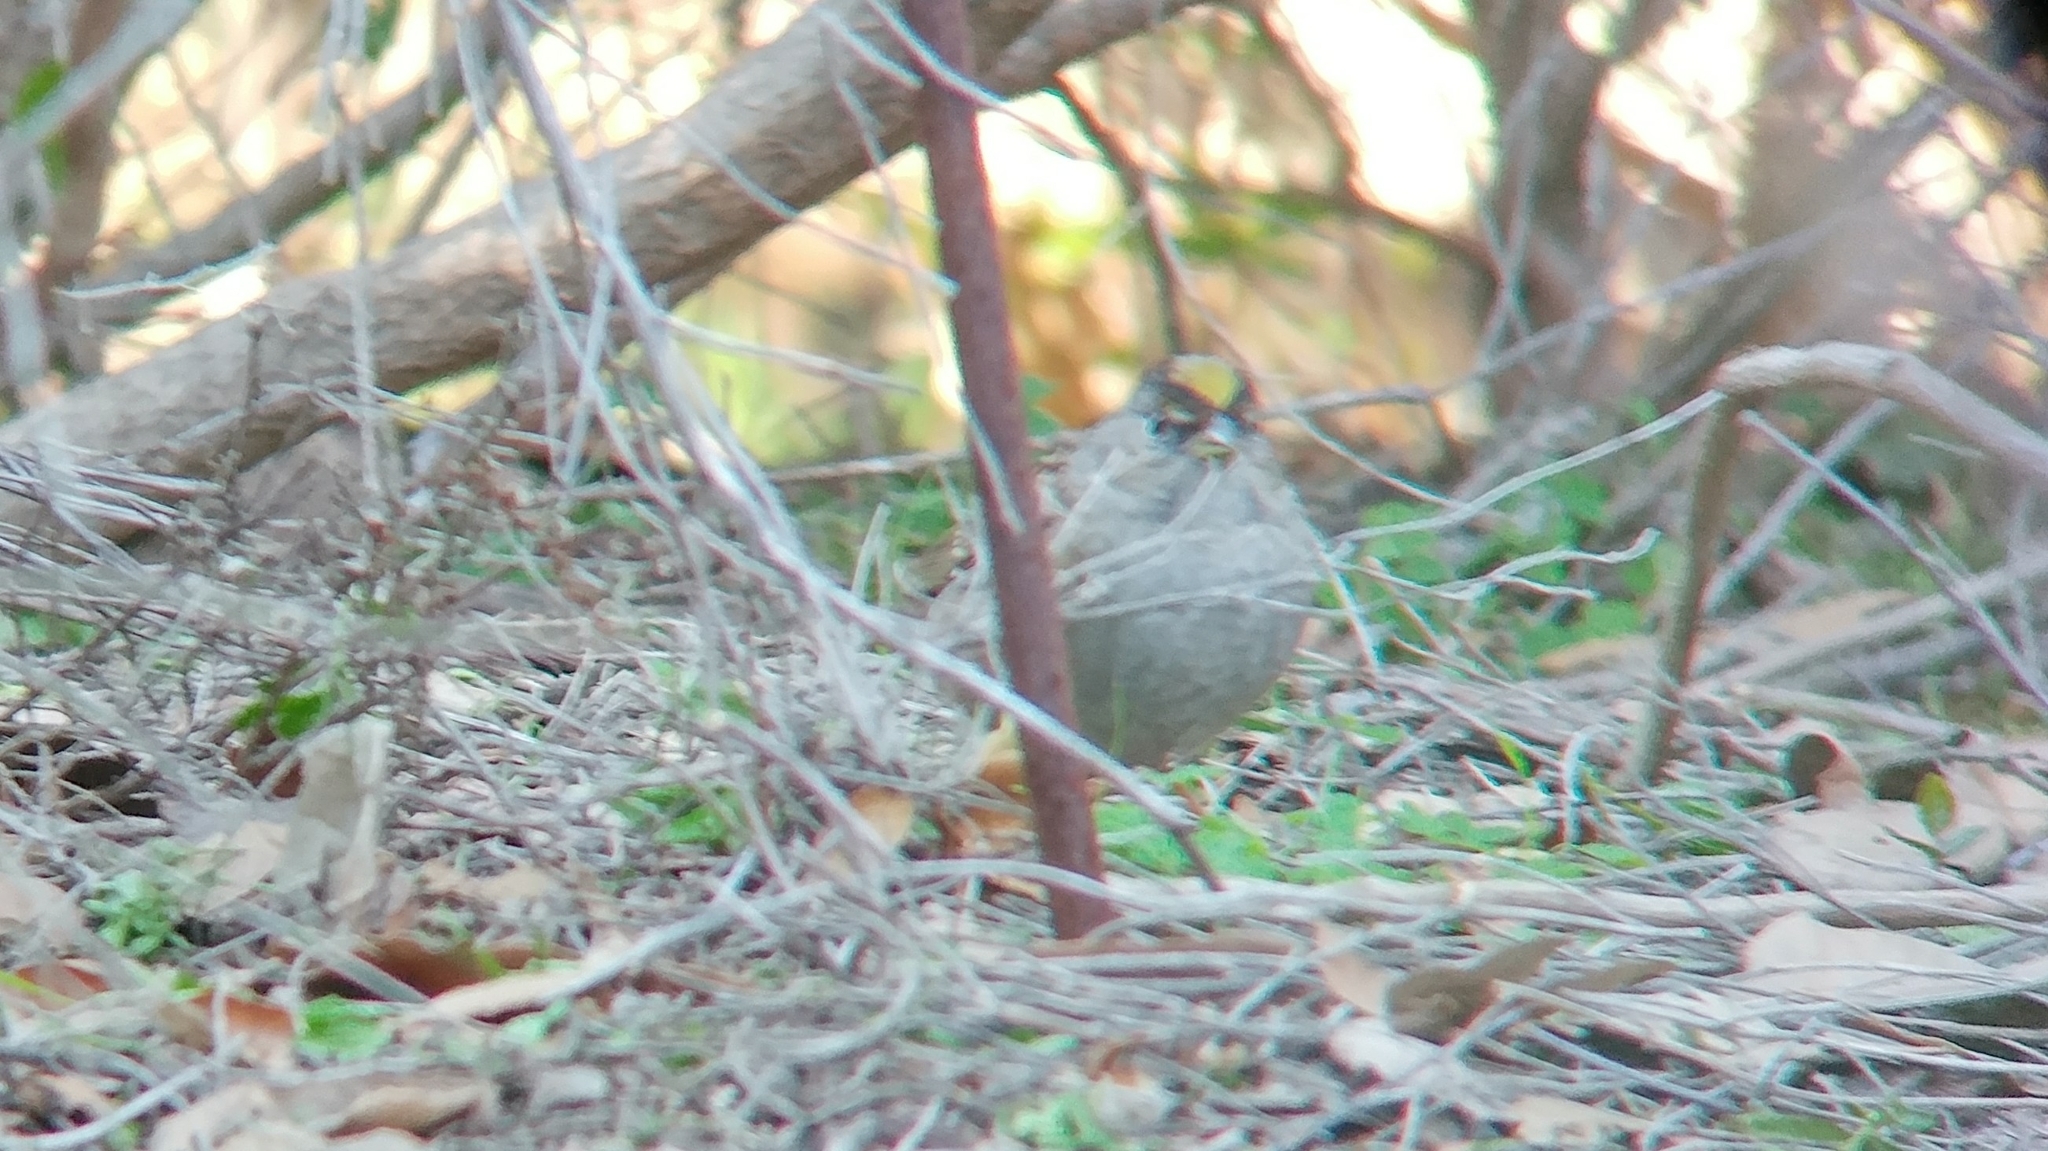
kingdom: Animalia
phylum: Chordata
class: Aves
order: Passeriformes
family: Passerellidae
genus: Zonotrichia
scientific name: Zonotrichia atricapilla
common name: Golden-crowned sparrow
